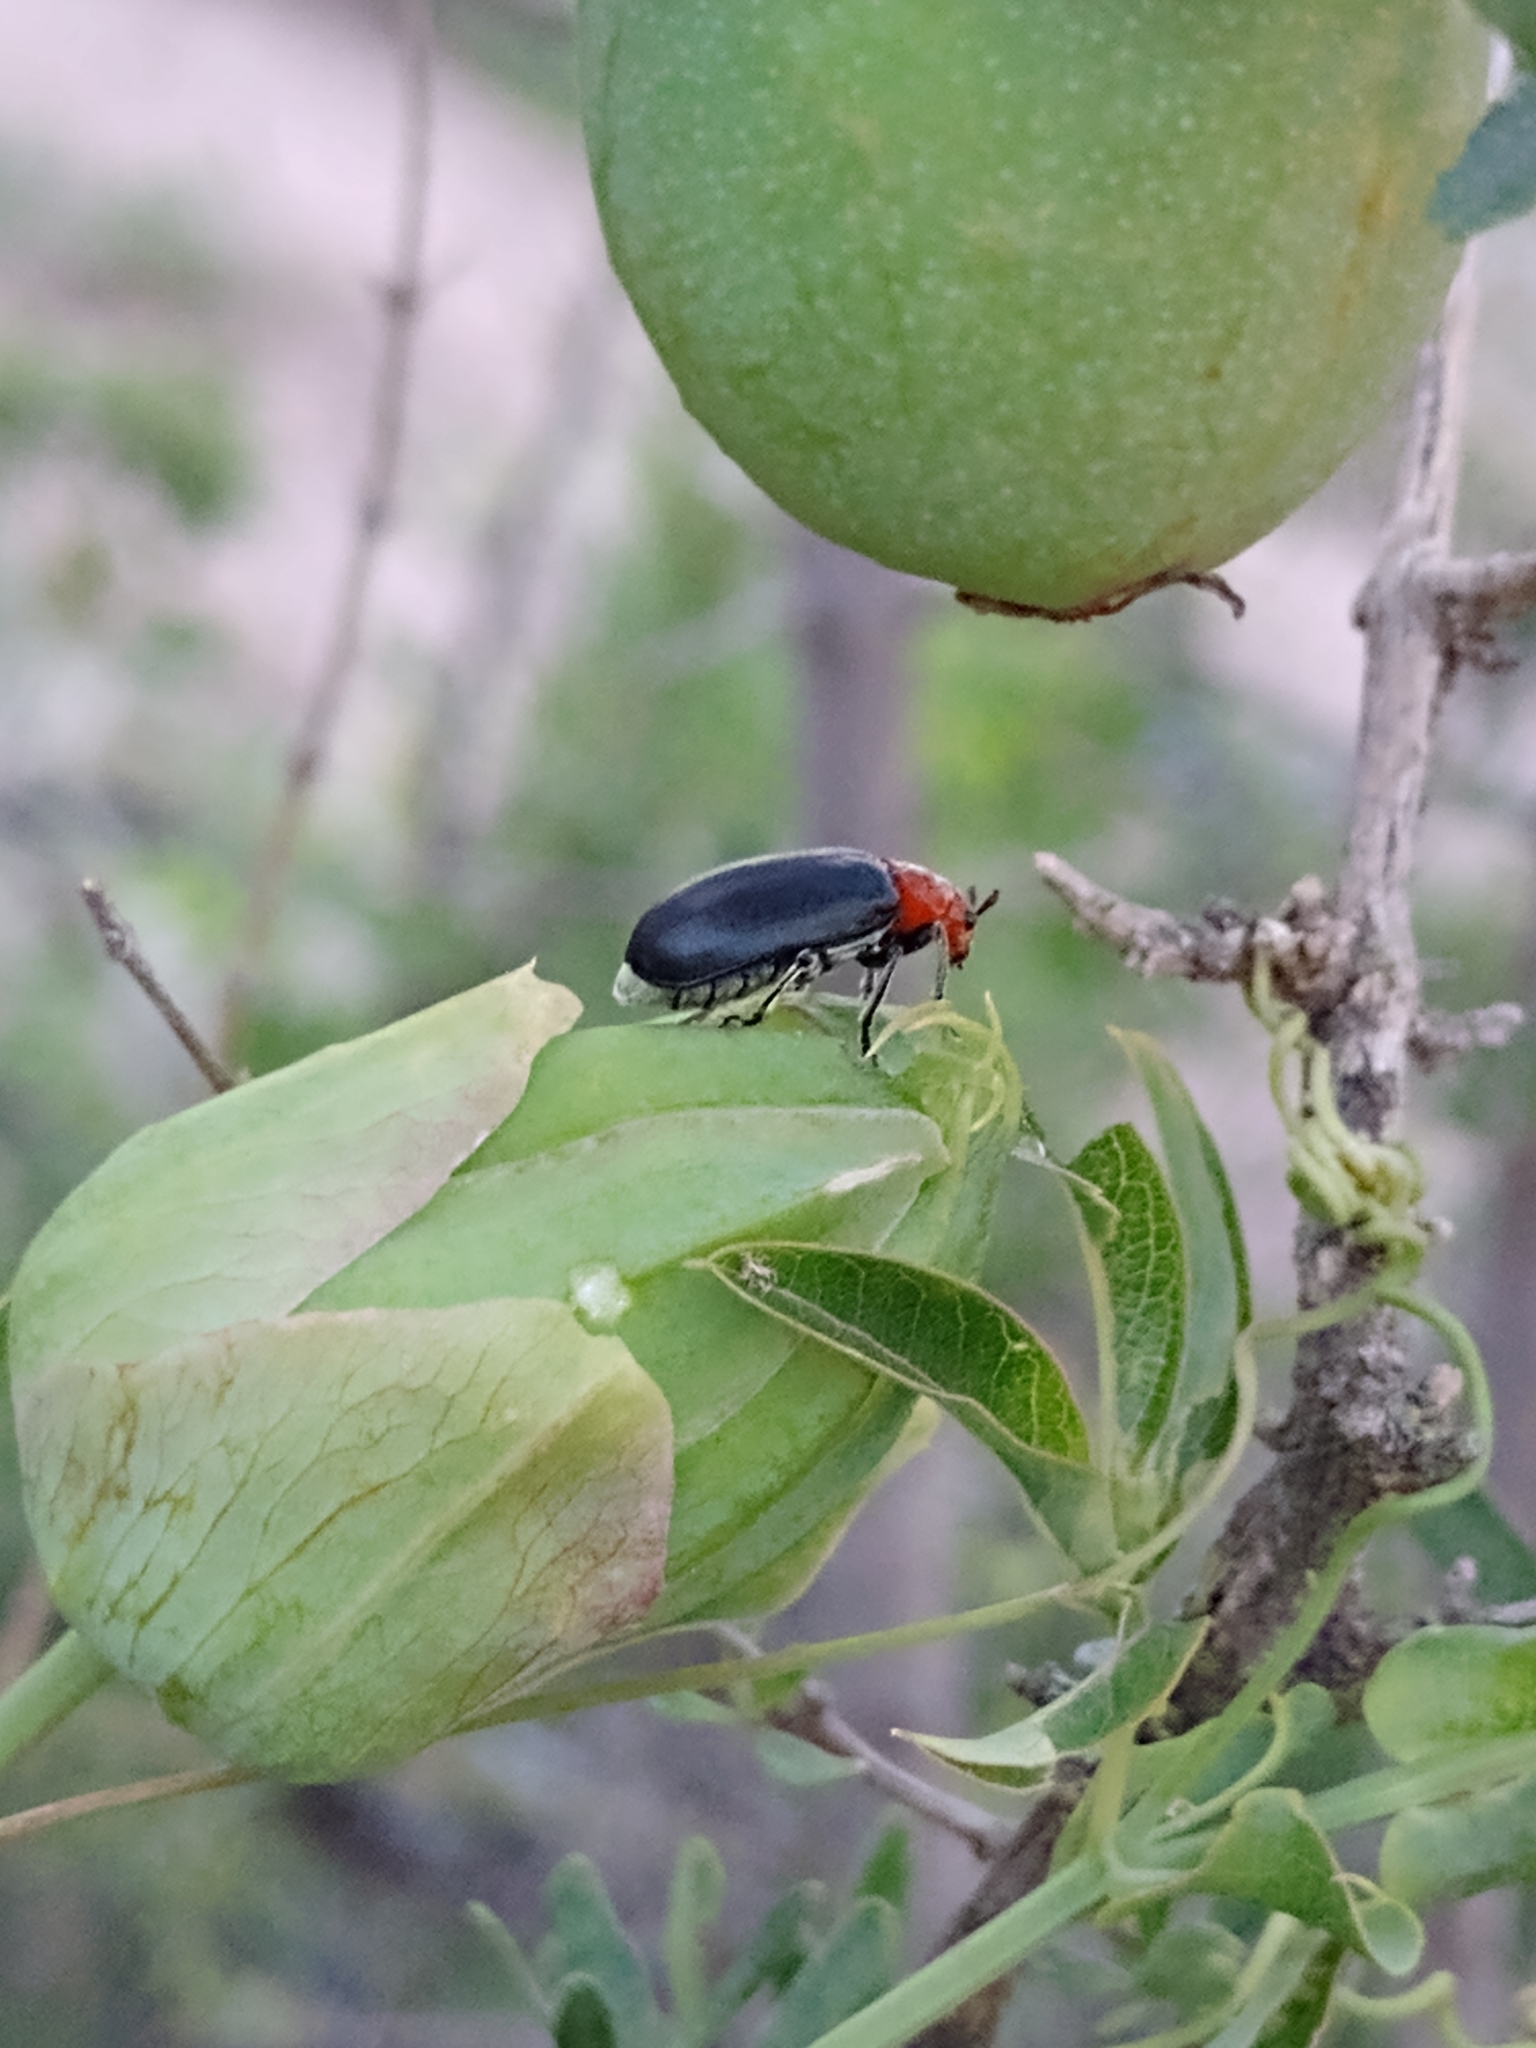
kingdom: Animalia
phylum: Arthropoda
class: Insecta
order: Coleoptera
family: Chrysomelidae
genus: Cacoscelis
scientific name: Cacoscelis
